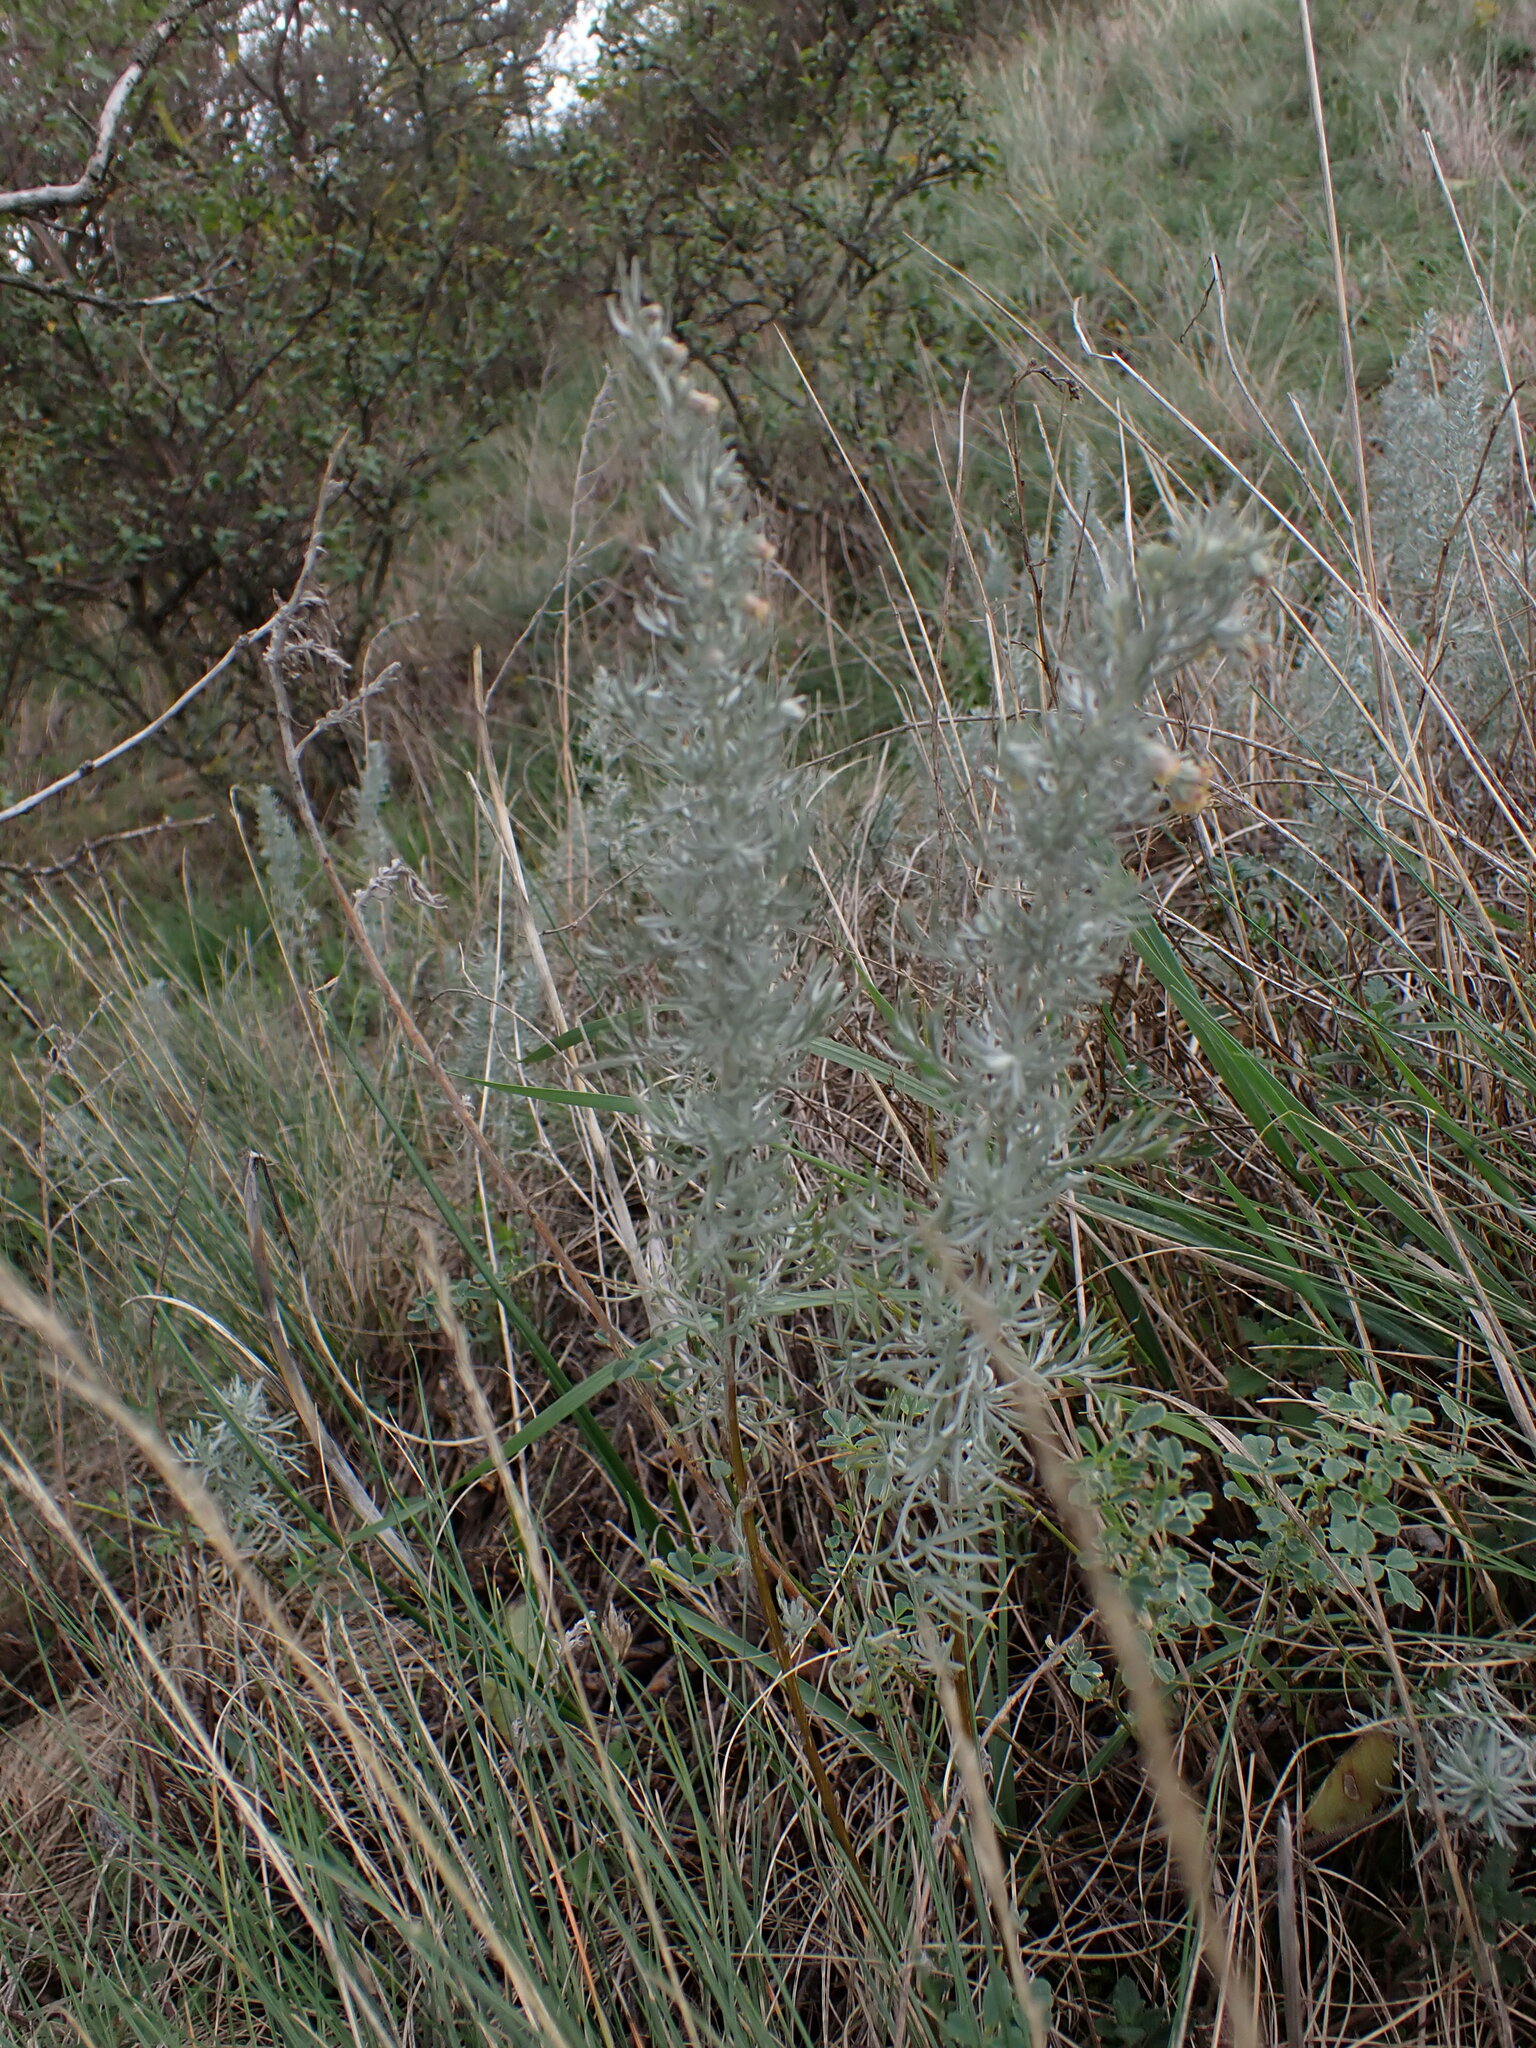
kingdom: Plantae
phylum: Tracheophyta
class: Magnoliopsida
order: Asterales
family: Asteraceae
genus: Artemisia
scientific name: Artemisia austriaca
